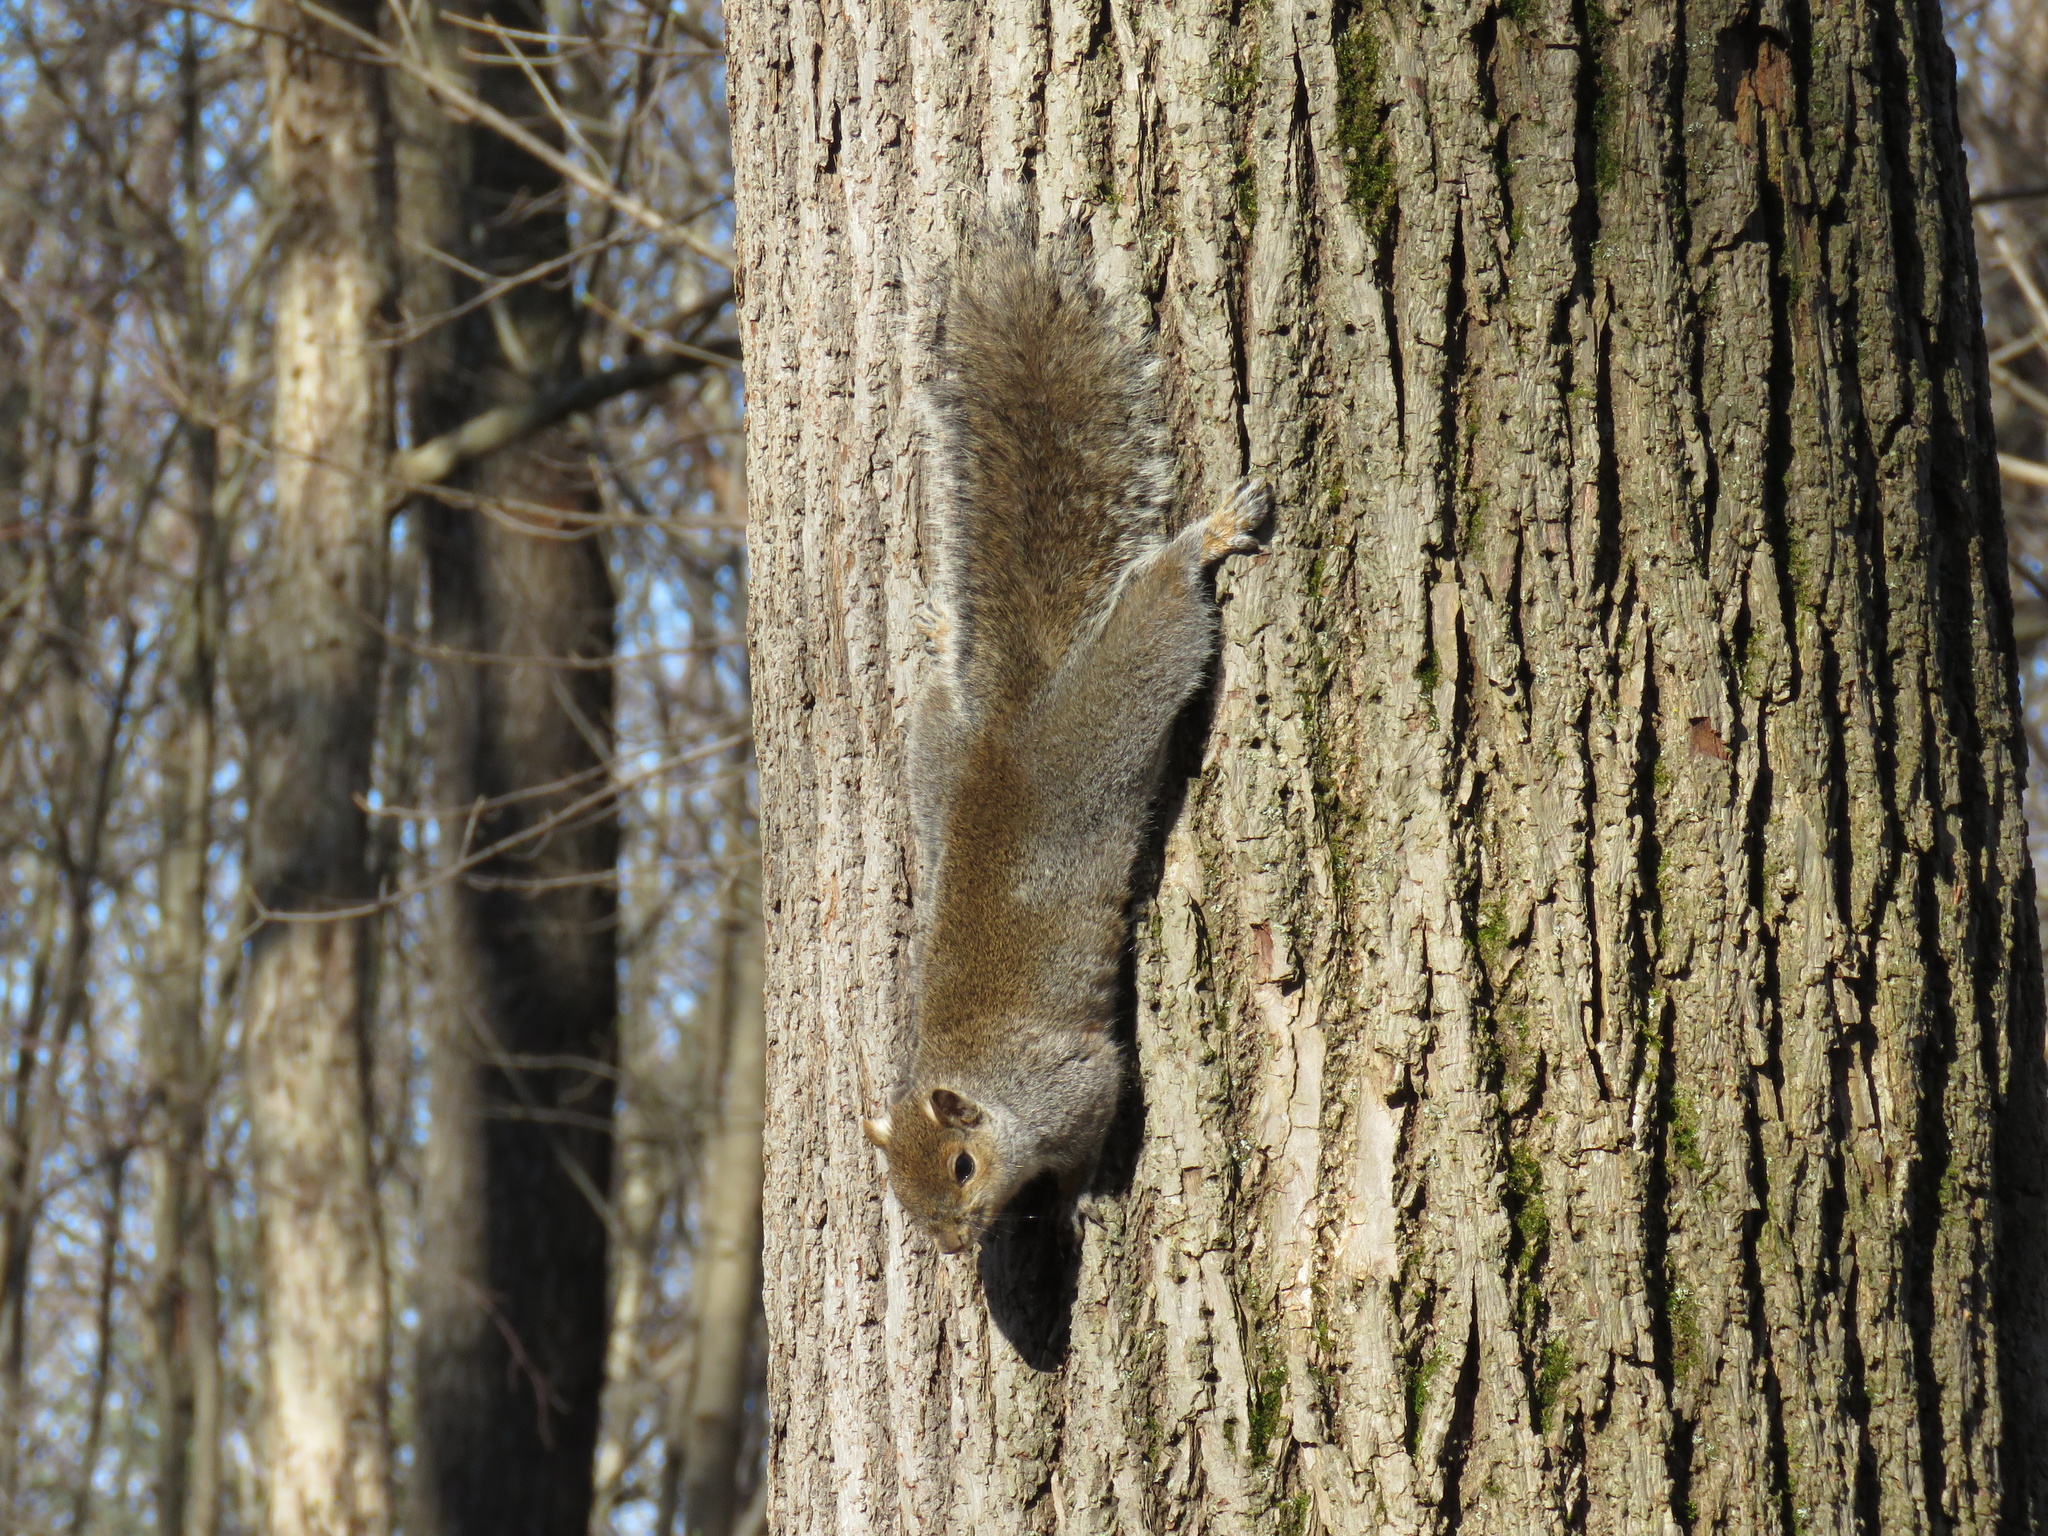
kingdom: Animalia
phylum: Chordata
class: Mammalia
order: Rodentia
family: Sciuridae
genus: Sciurus
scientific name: Sciurus carolinensis
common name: Eastern gray squirrel
